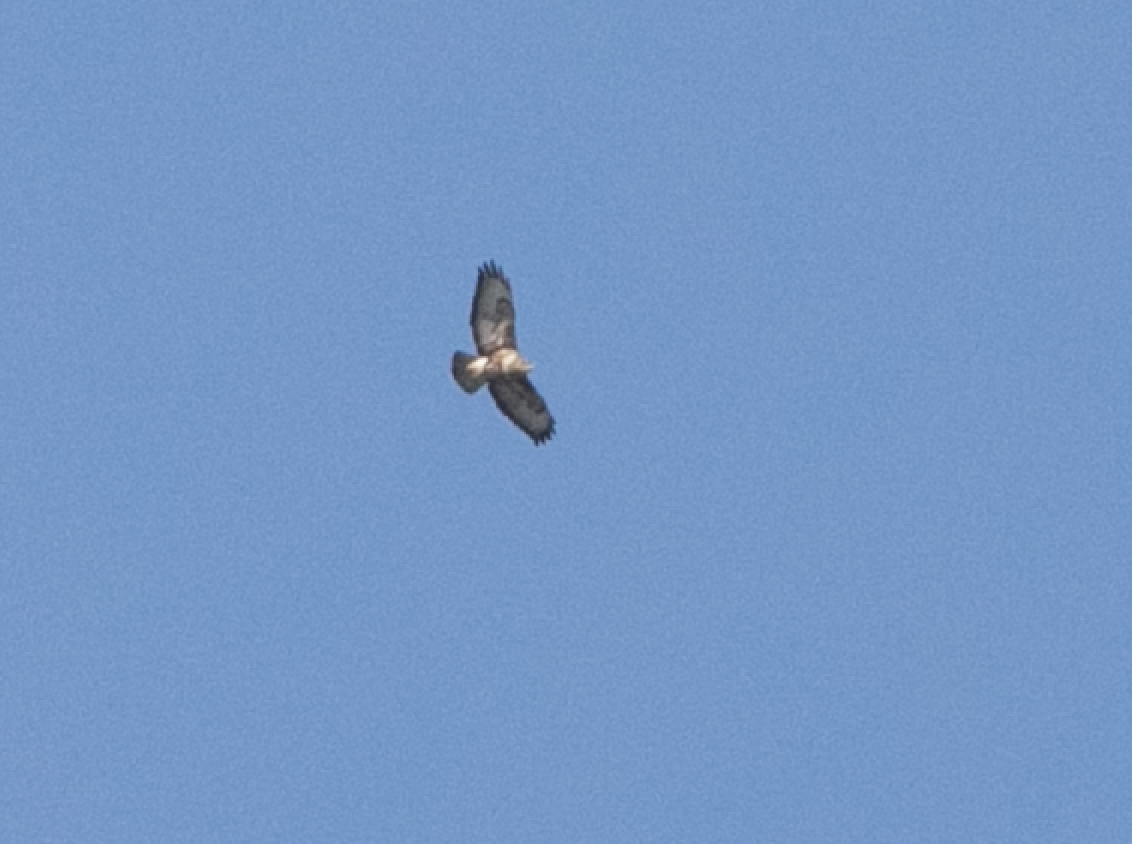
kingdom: Animalia
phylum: Chordata
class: Aves
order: Accipitriformes
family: Accipitridae
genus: Buteo
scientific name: Buteo buteo
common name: Common buzzard
